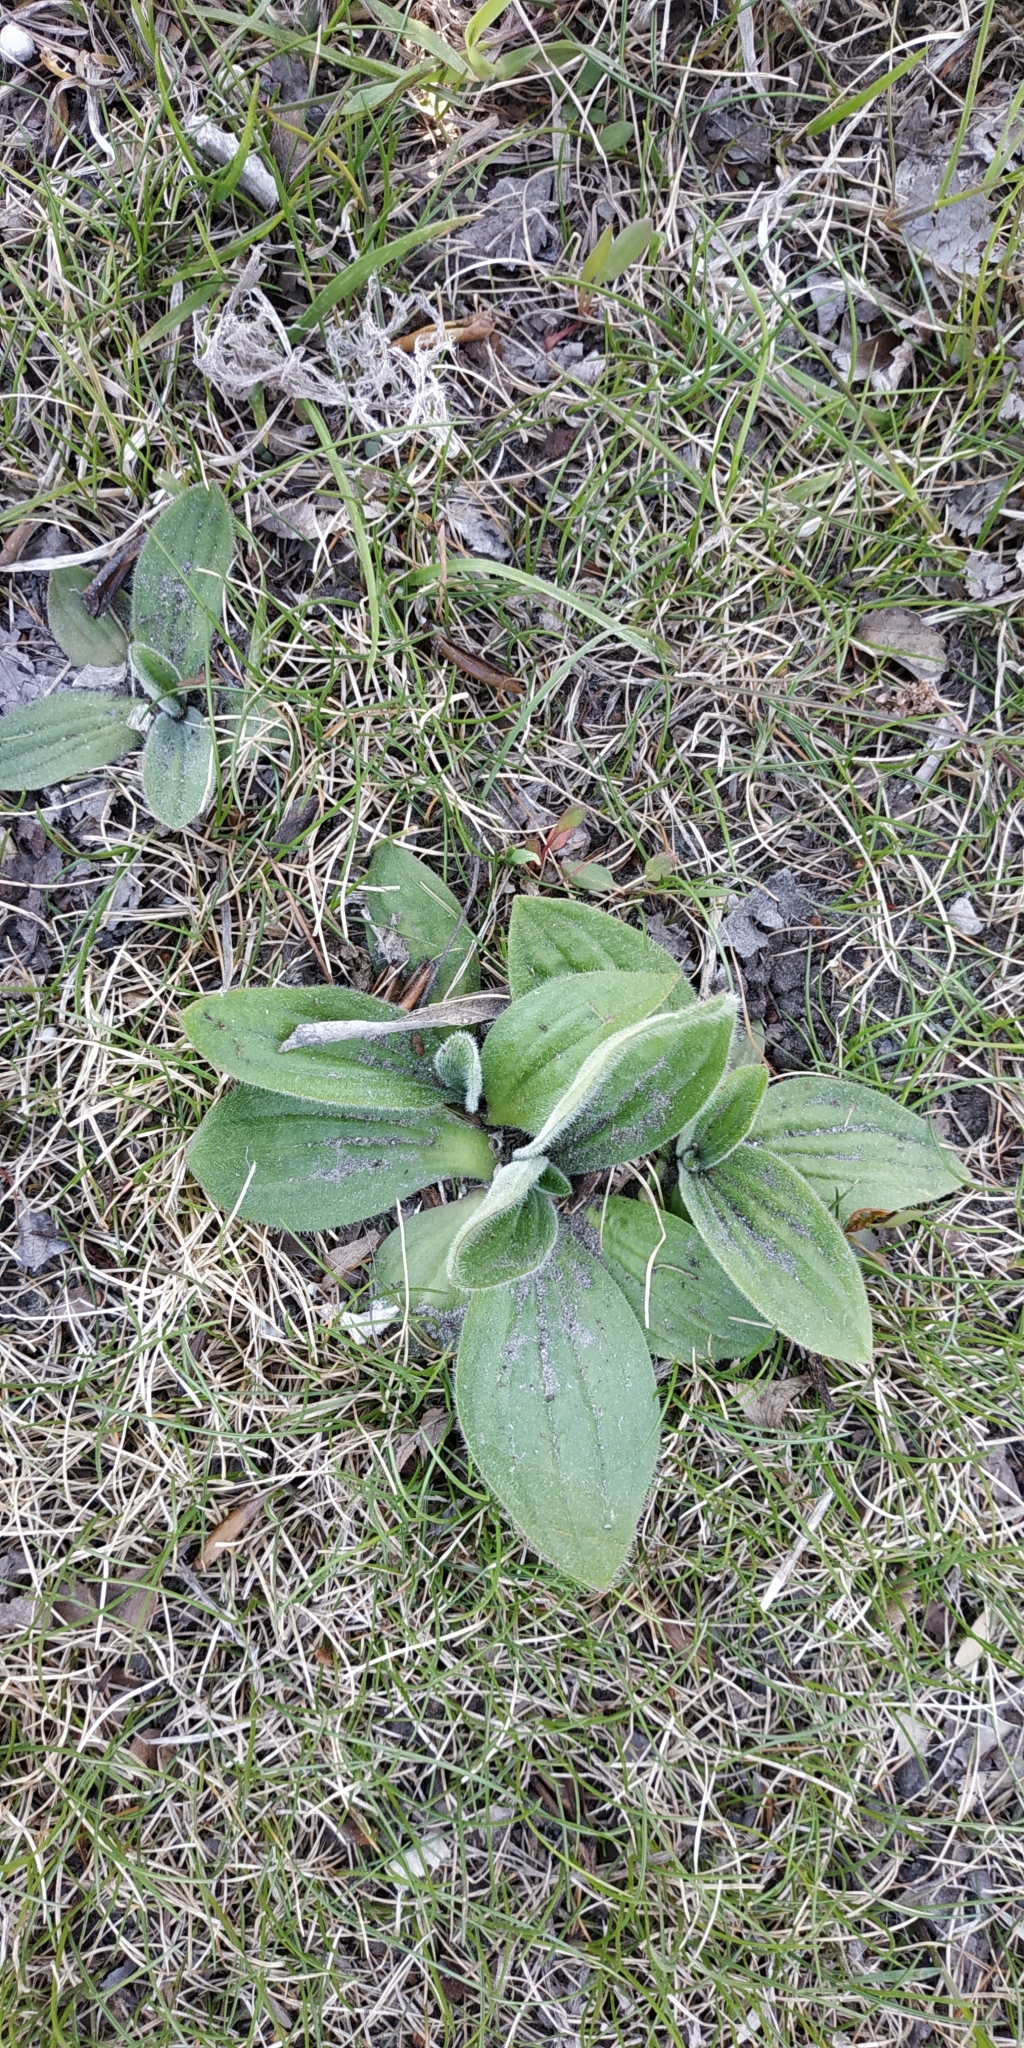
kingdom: Plantae
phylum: Tracheophyta
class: Magnoliopsida
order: Lamiales
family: Plantaginaceae
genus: Plantago
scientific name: Plantago media
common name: Hoary plantain
